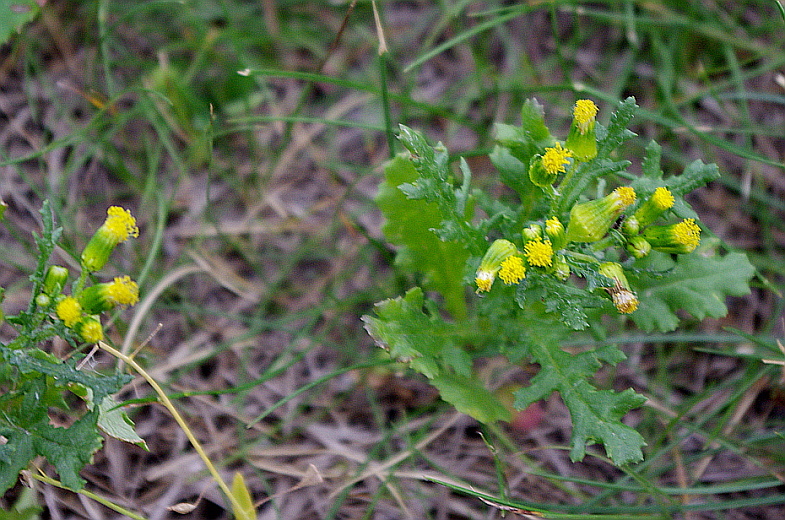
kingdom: Plantae
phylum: Tracheophyta
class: Magnoliopsida
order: Asterales
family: Asteraceae
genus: Senecio
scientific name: Senecio vulgaris
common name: Old-man-in-the-spring
